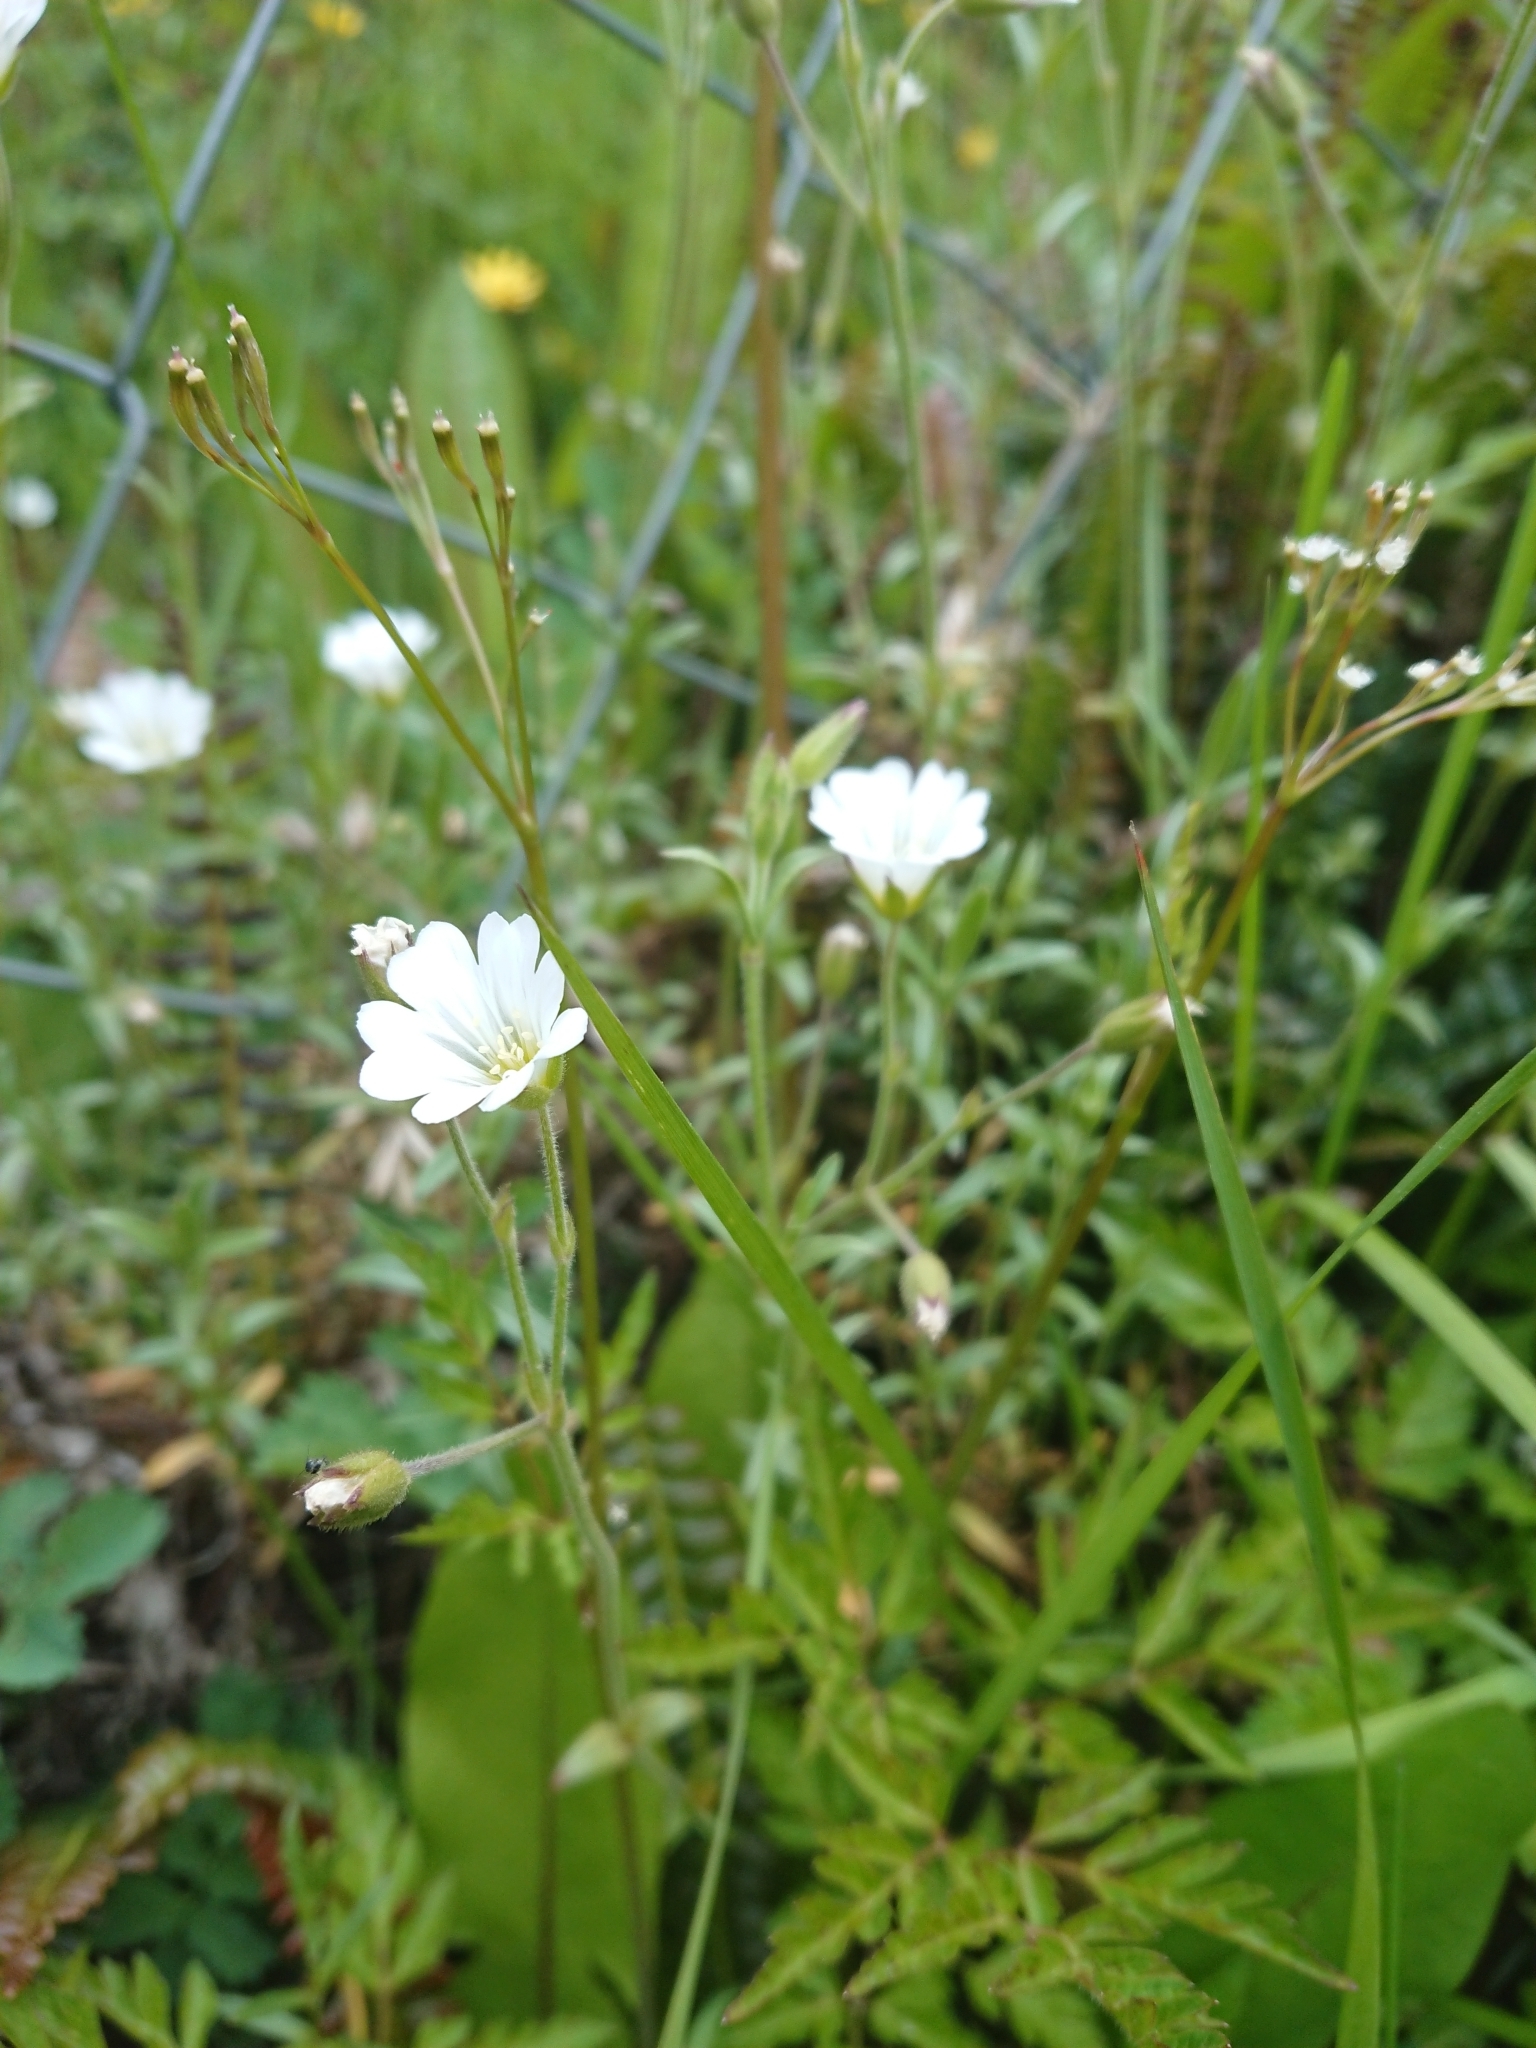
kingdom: Plantae
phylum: Tracheophyta
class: Magnoliopsida
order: Caryophyllales
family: Caryophyllaceae
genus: Cerastium
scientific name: Cerastium arvense
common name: Field mouse-ear
